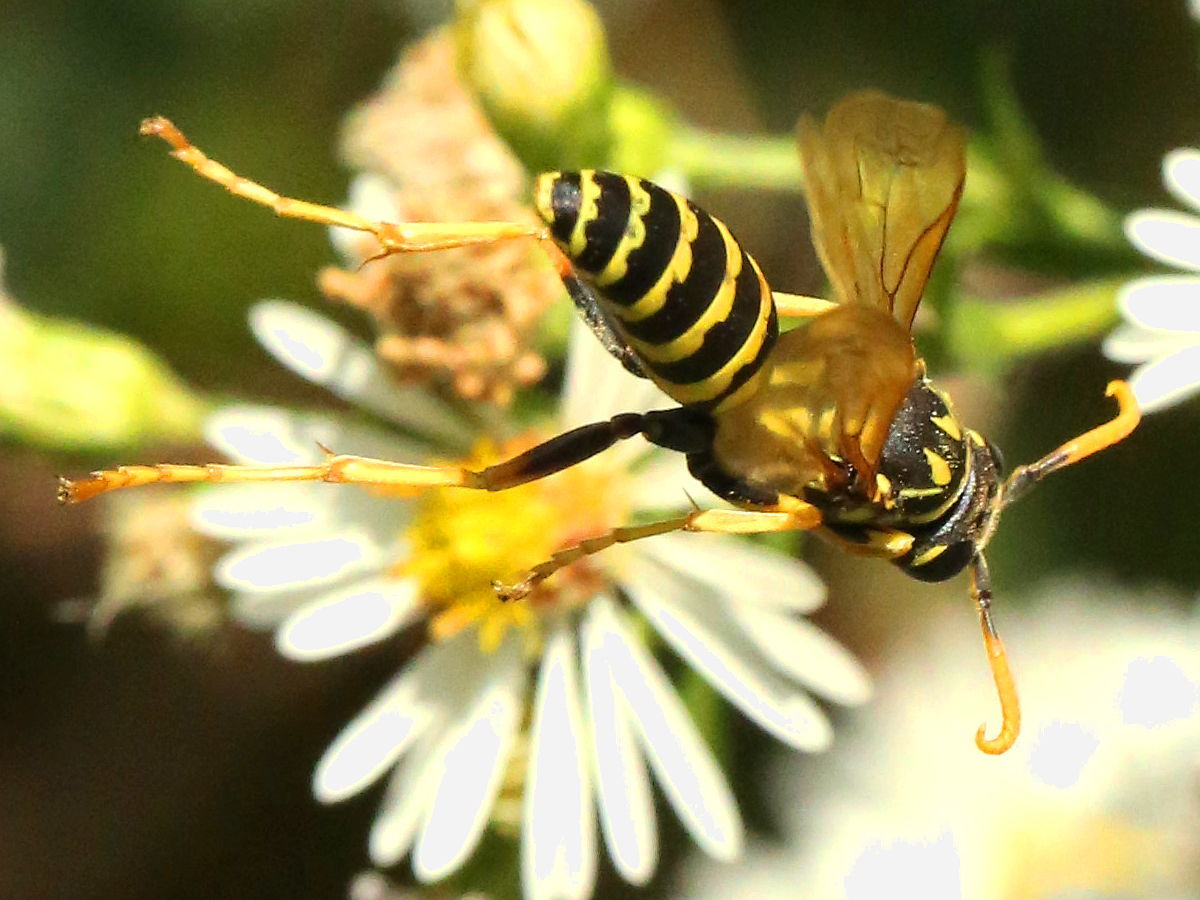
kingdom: Animalia
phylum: Arthropoda
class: Insecta
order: Hymenoptera
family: Eumenidae
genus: Polistes
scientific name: Polistes dominula
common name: Paper wasp
